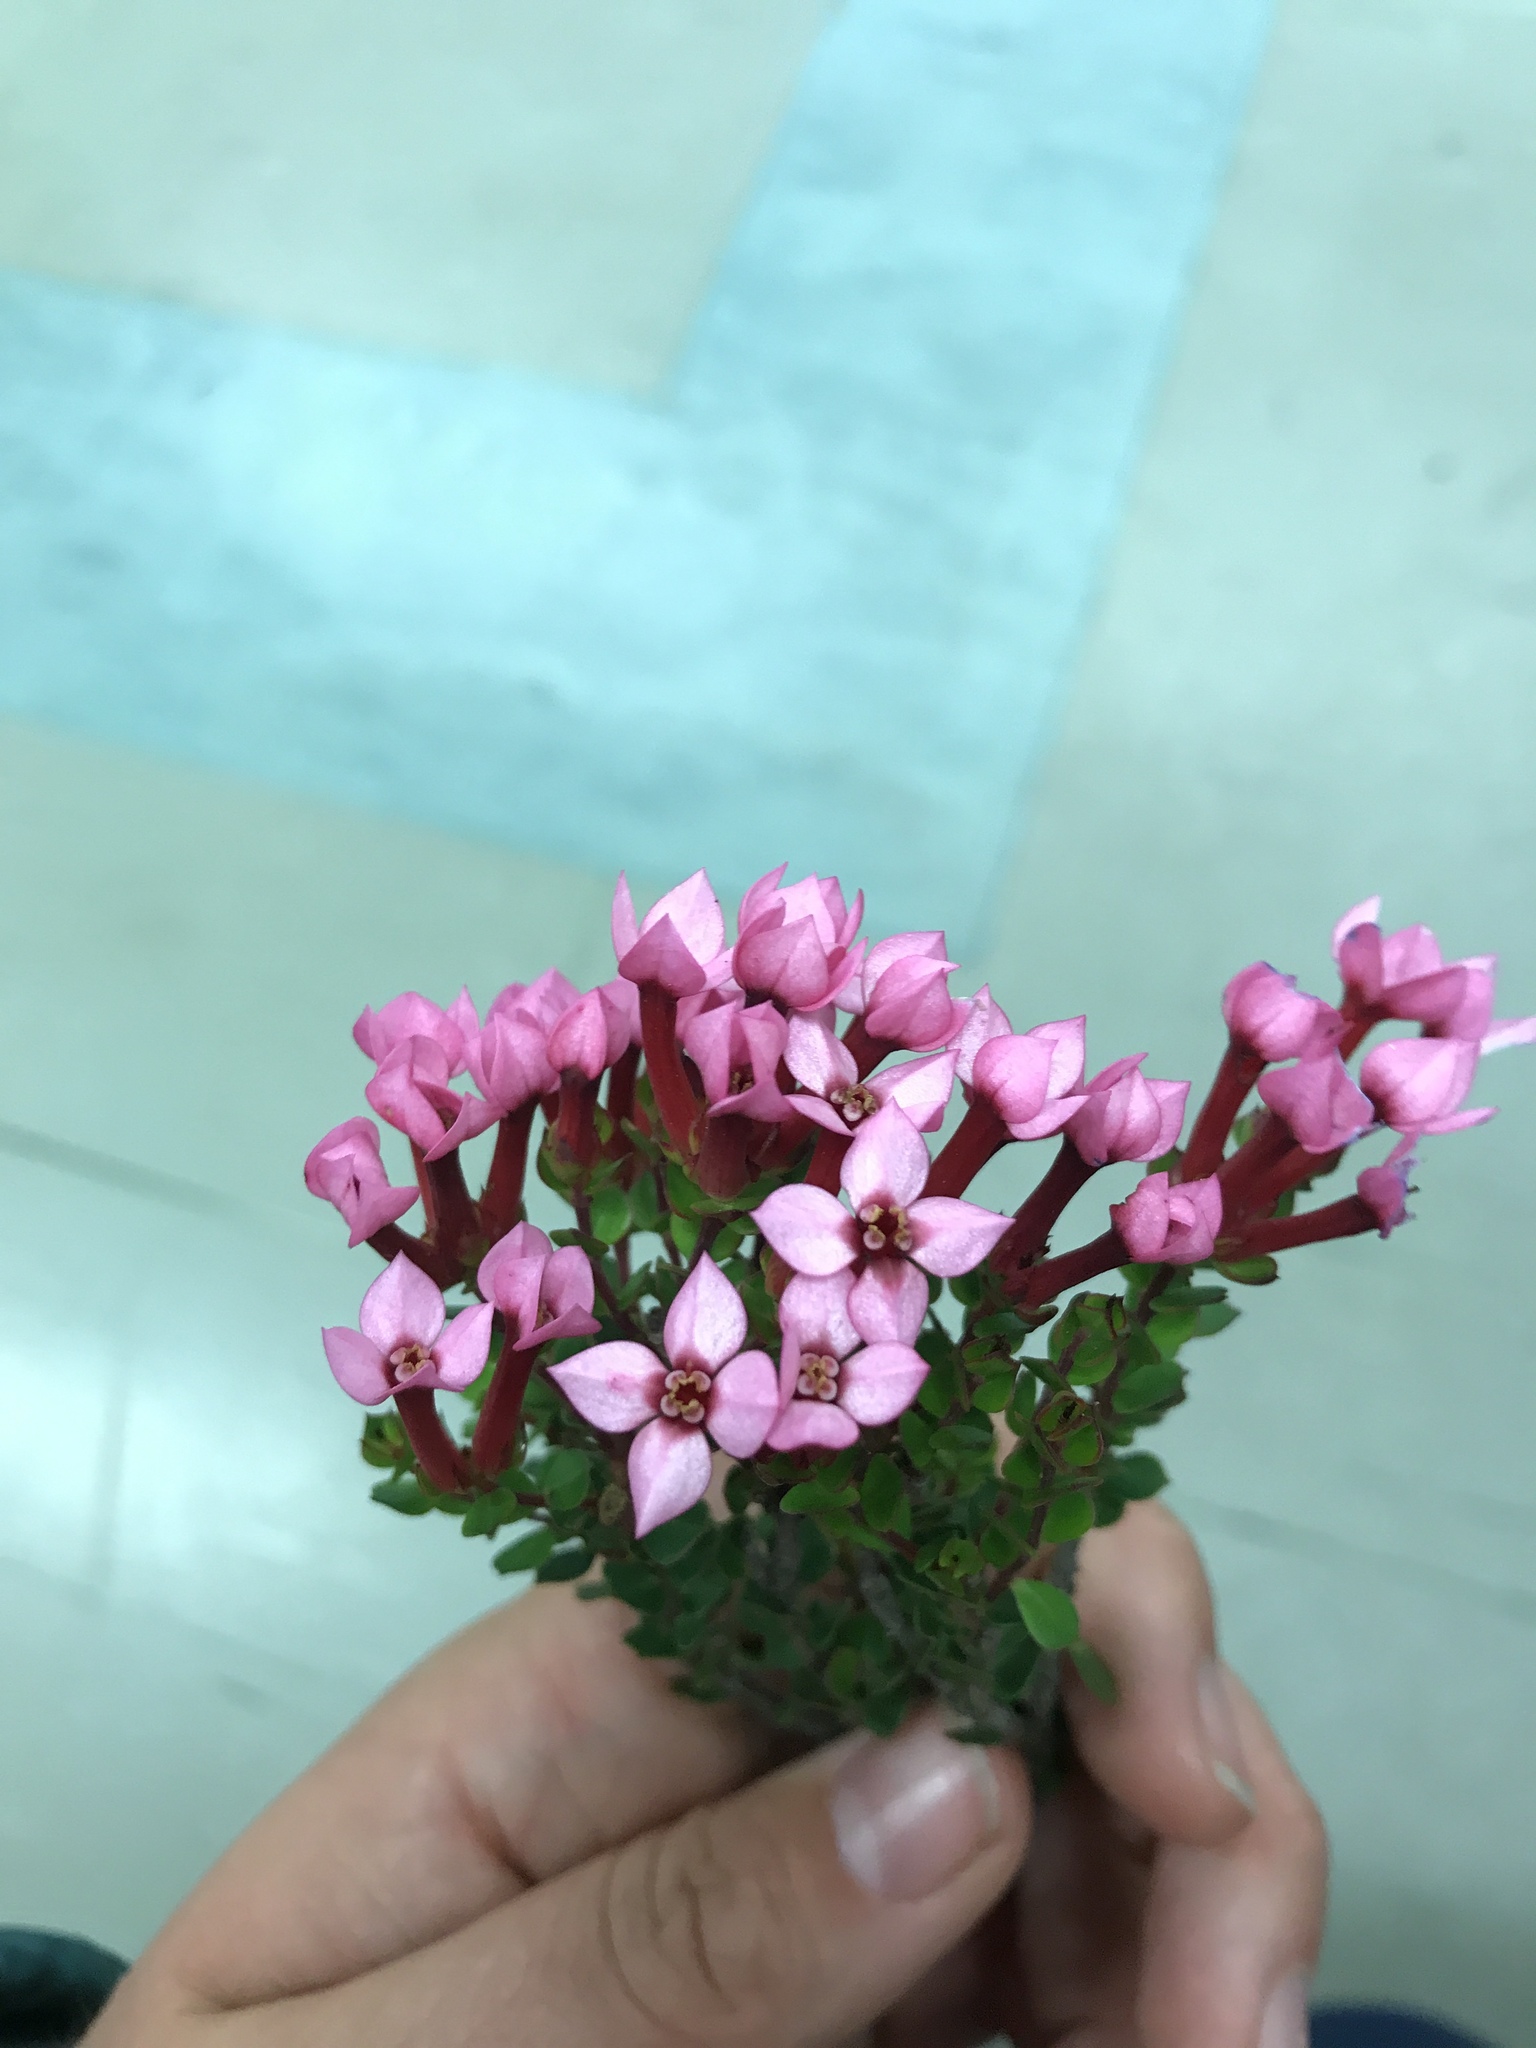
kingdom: Plantae
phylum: Tracheophyta
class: Magnoliopsida
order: Myrtales
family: Penaeaceae
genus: Brachysiphon
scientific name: Brachysiphon acutus
